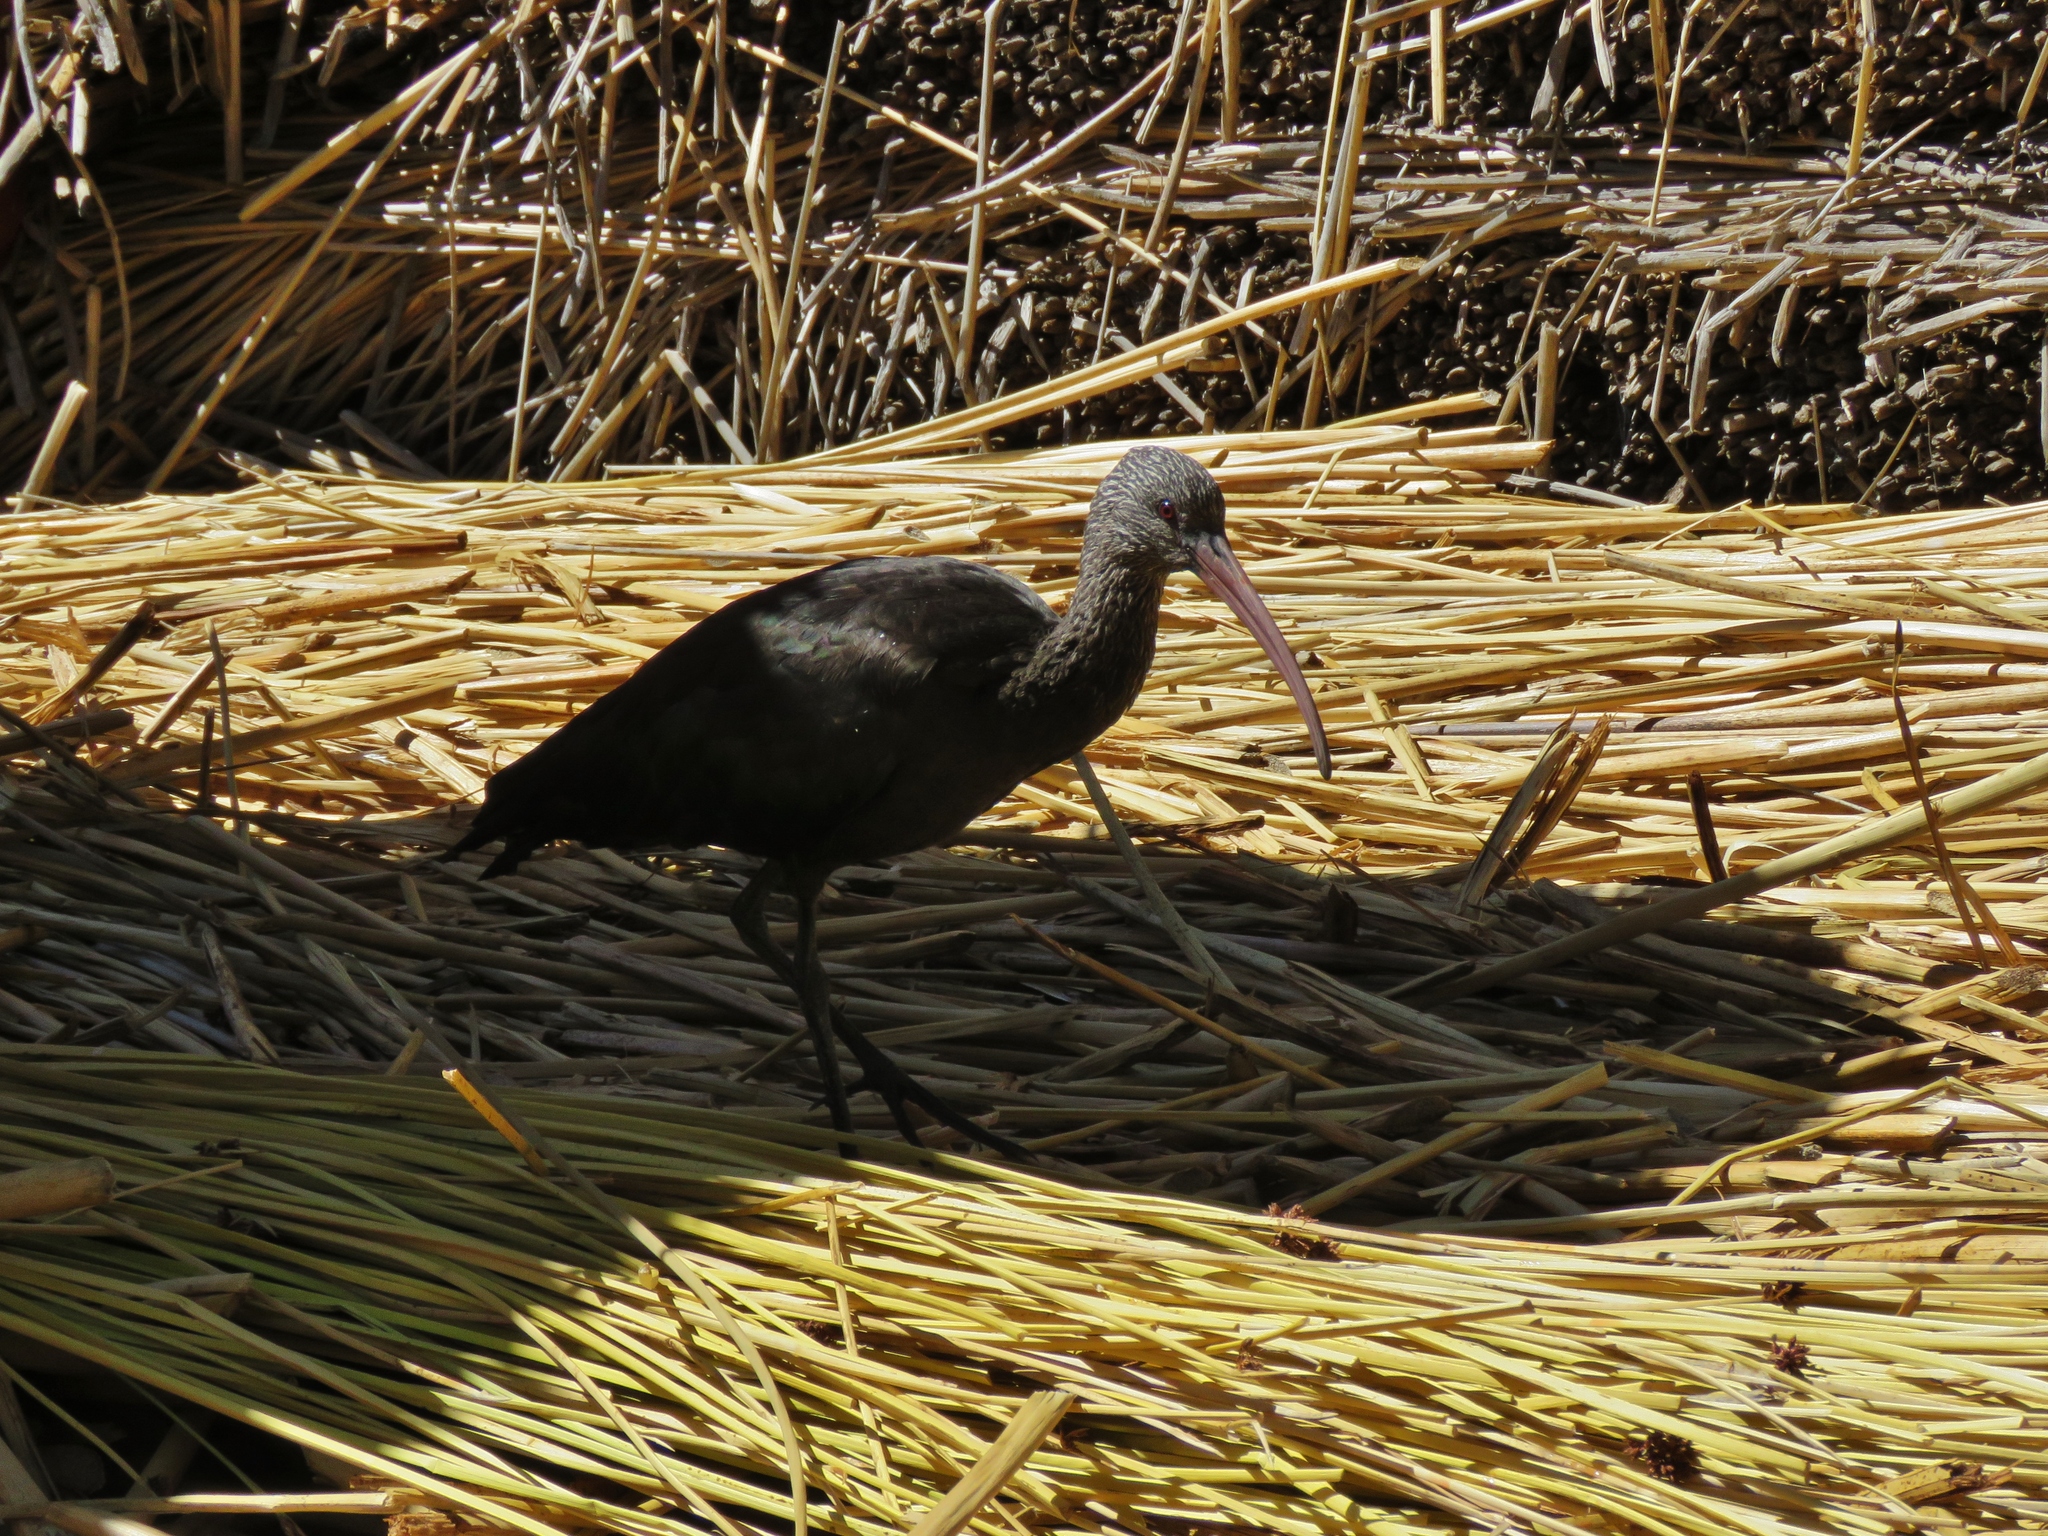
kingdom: Animalia
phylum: Chordata
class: Aves
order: Pelecaniformes
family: Threskiornithidae
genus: Plegadis
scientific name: Plegadis ridgwayi
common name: Puna ibis
